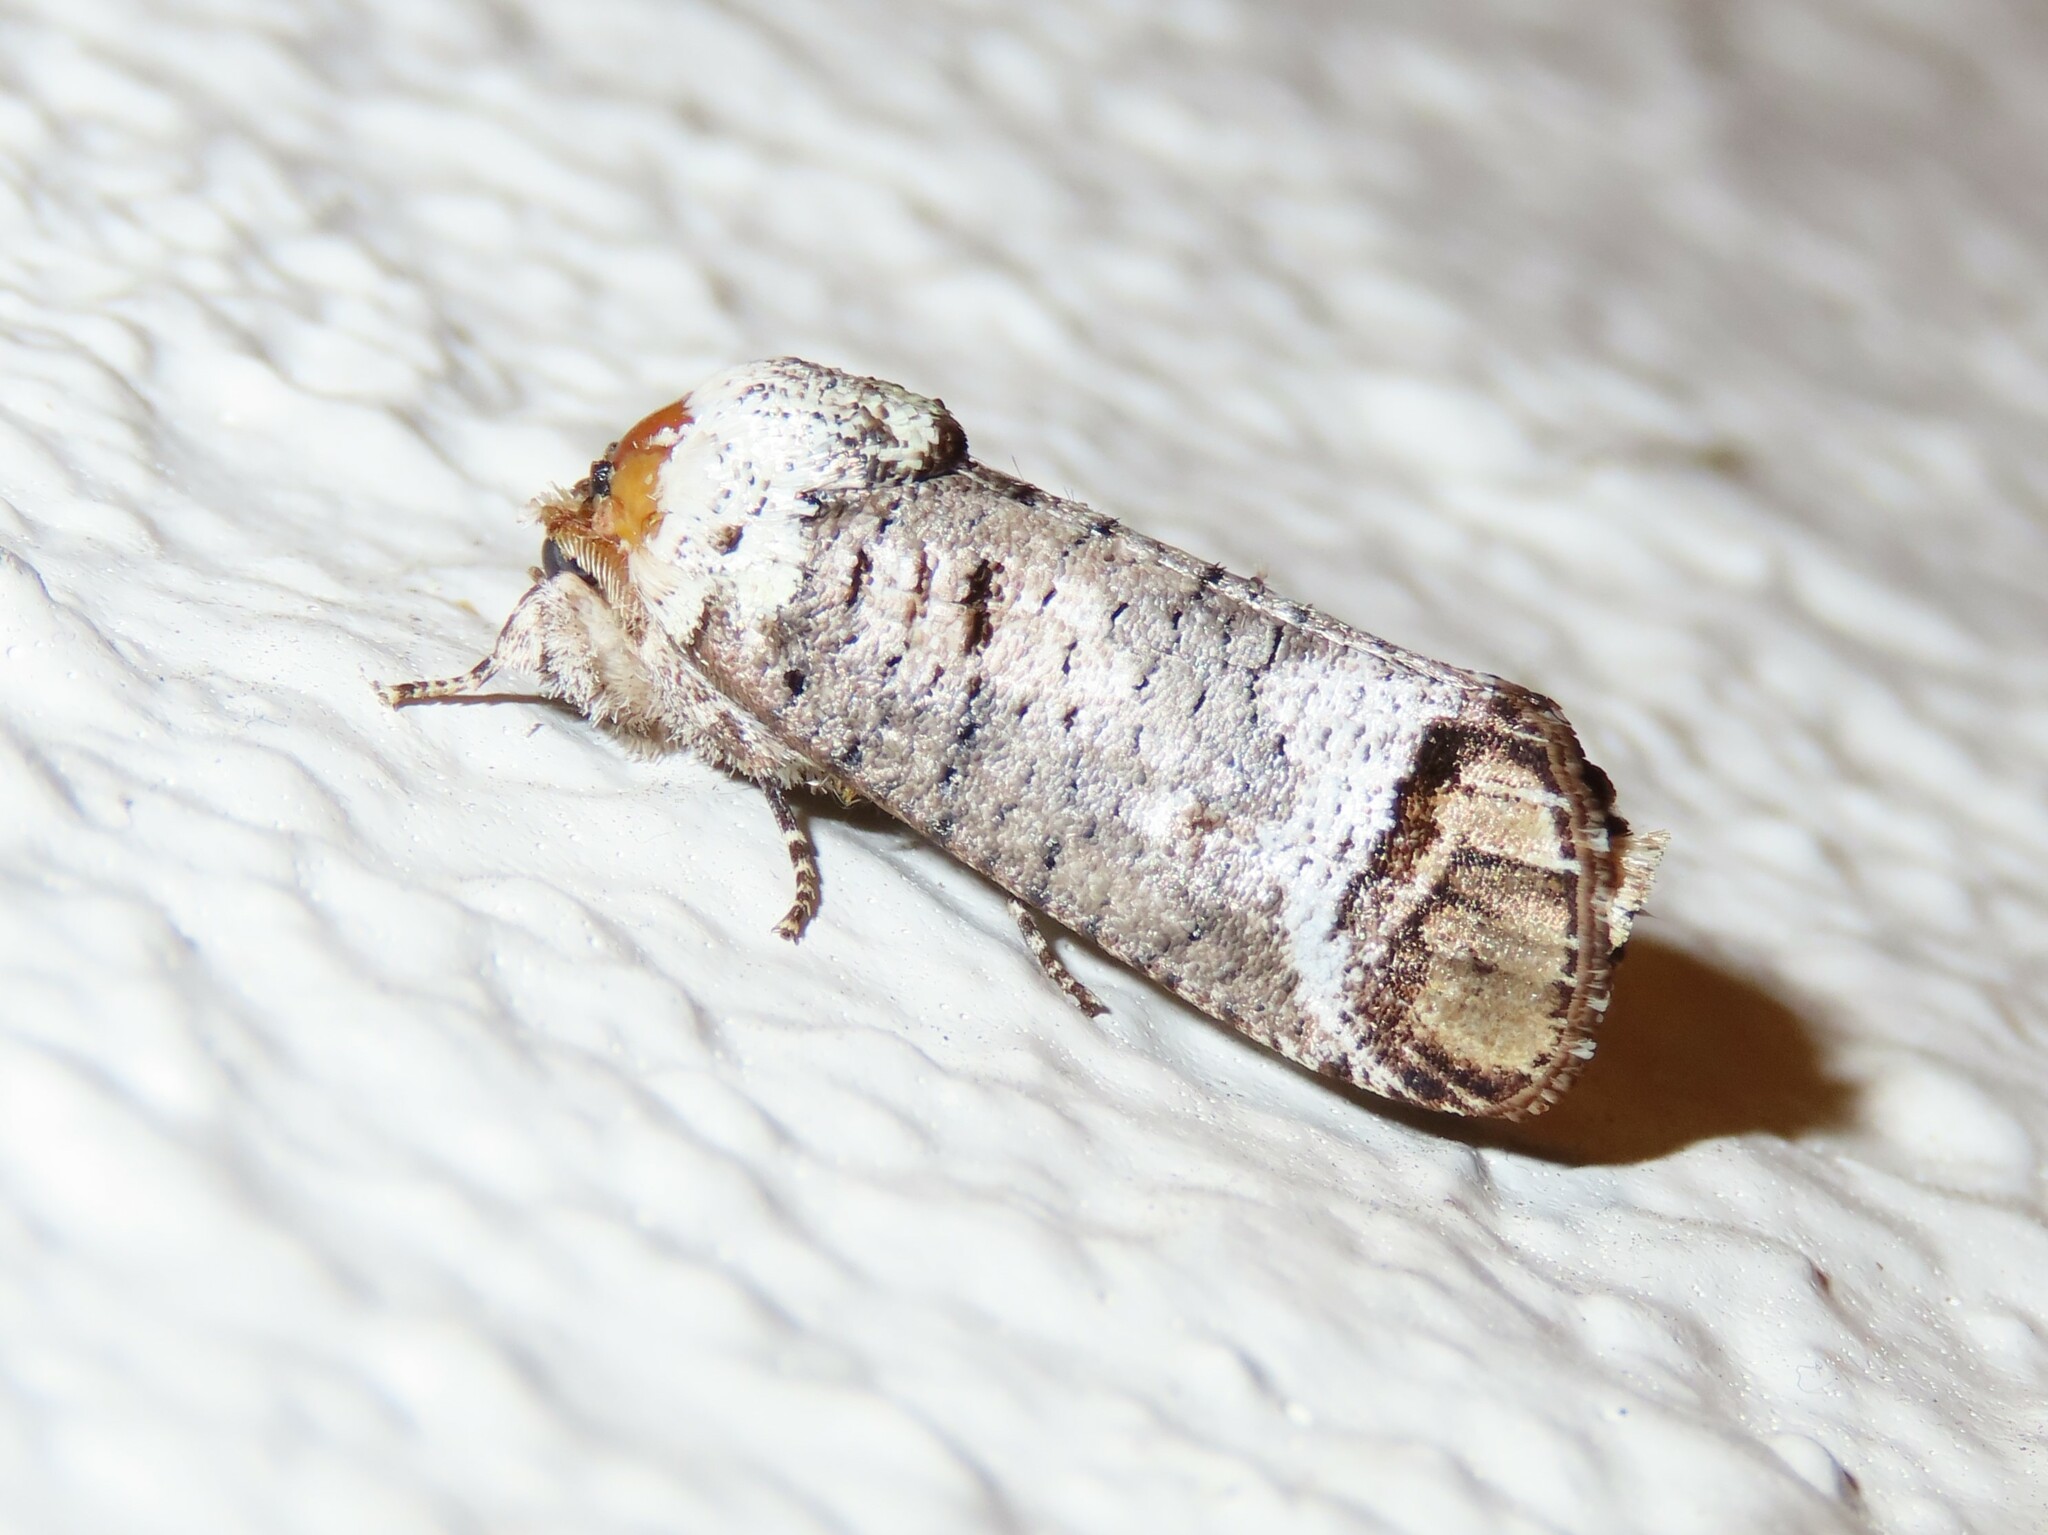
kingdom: Animalia
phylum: Arthropoda
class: Insecta
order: Lepidoptera
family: Cossidae
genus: Cossula
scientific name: Cossula magnifica
